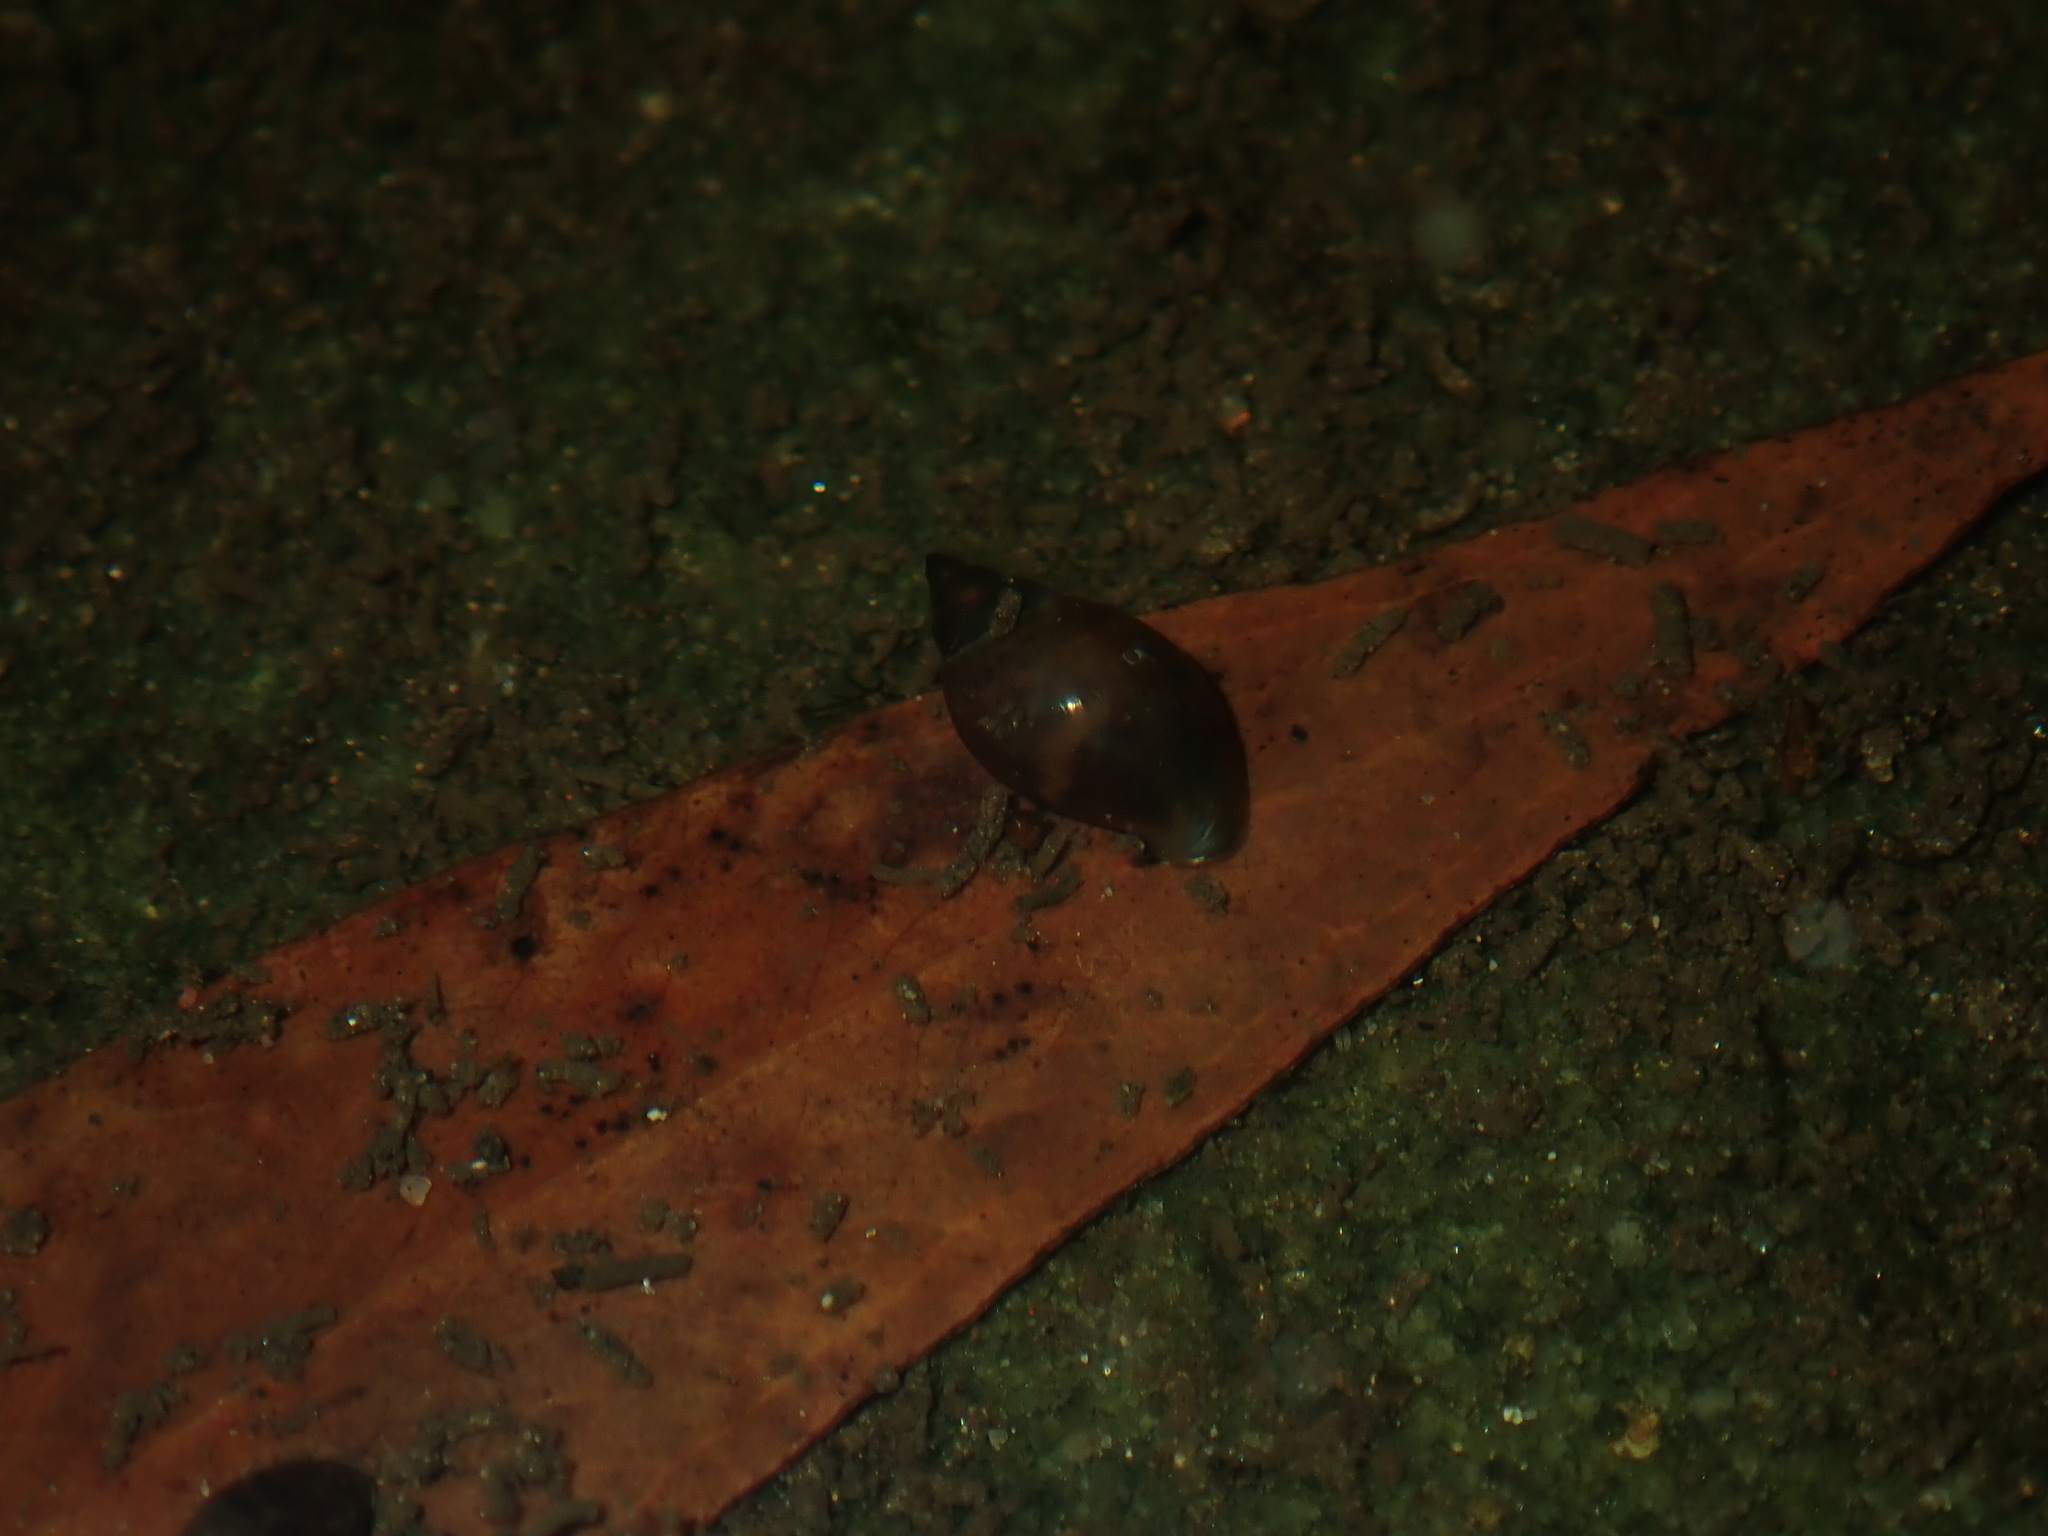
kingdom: Animalia
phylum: Mollusca
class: Gastropoda
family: Physidae
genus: Physella
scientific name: Physella acuta
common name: European physa
